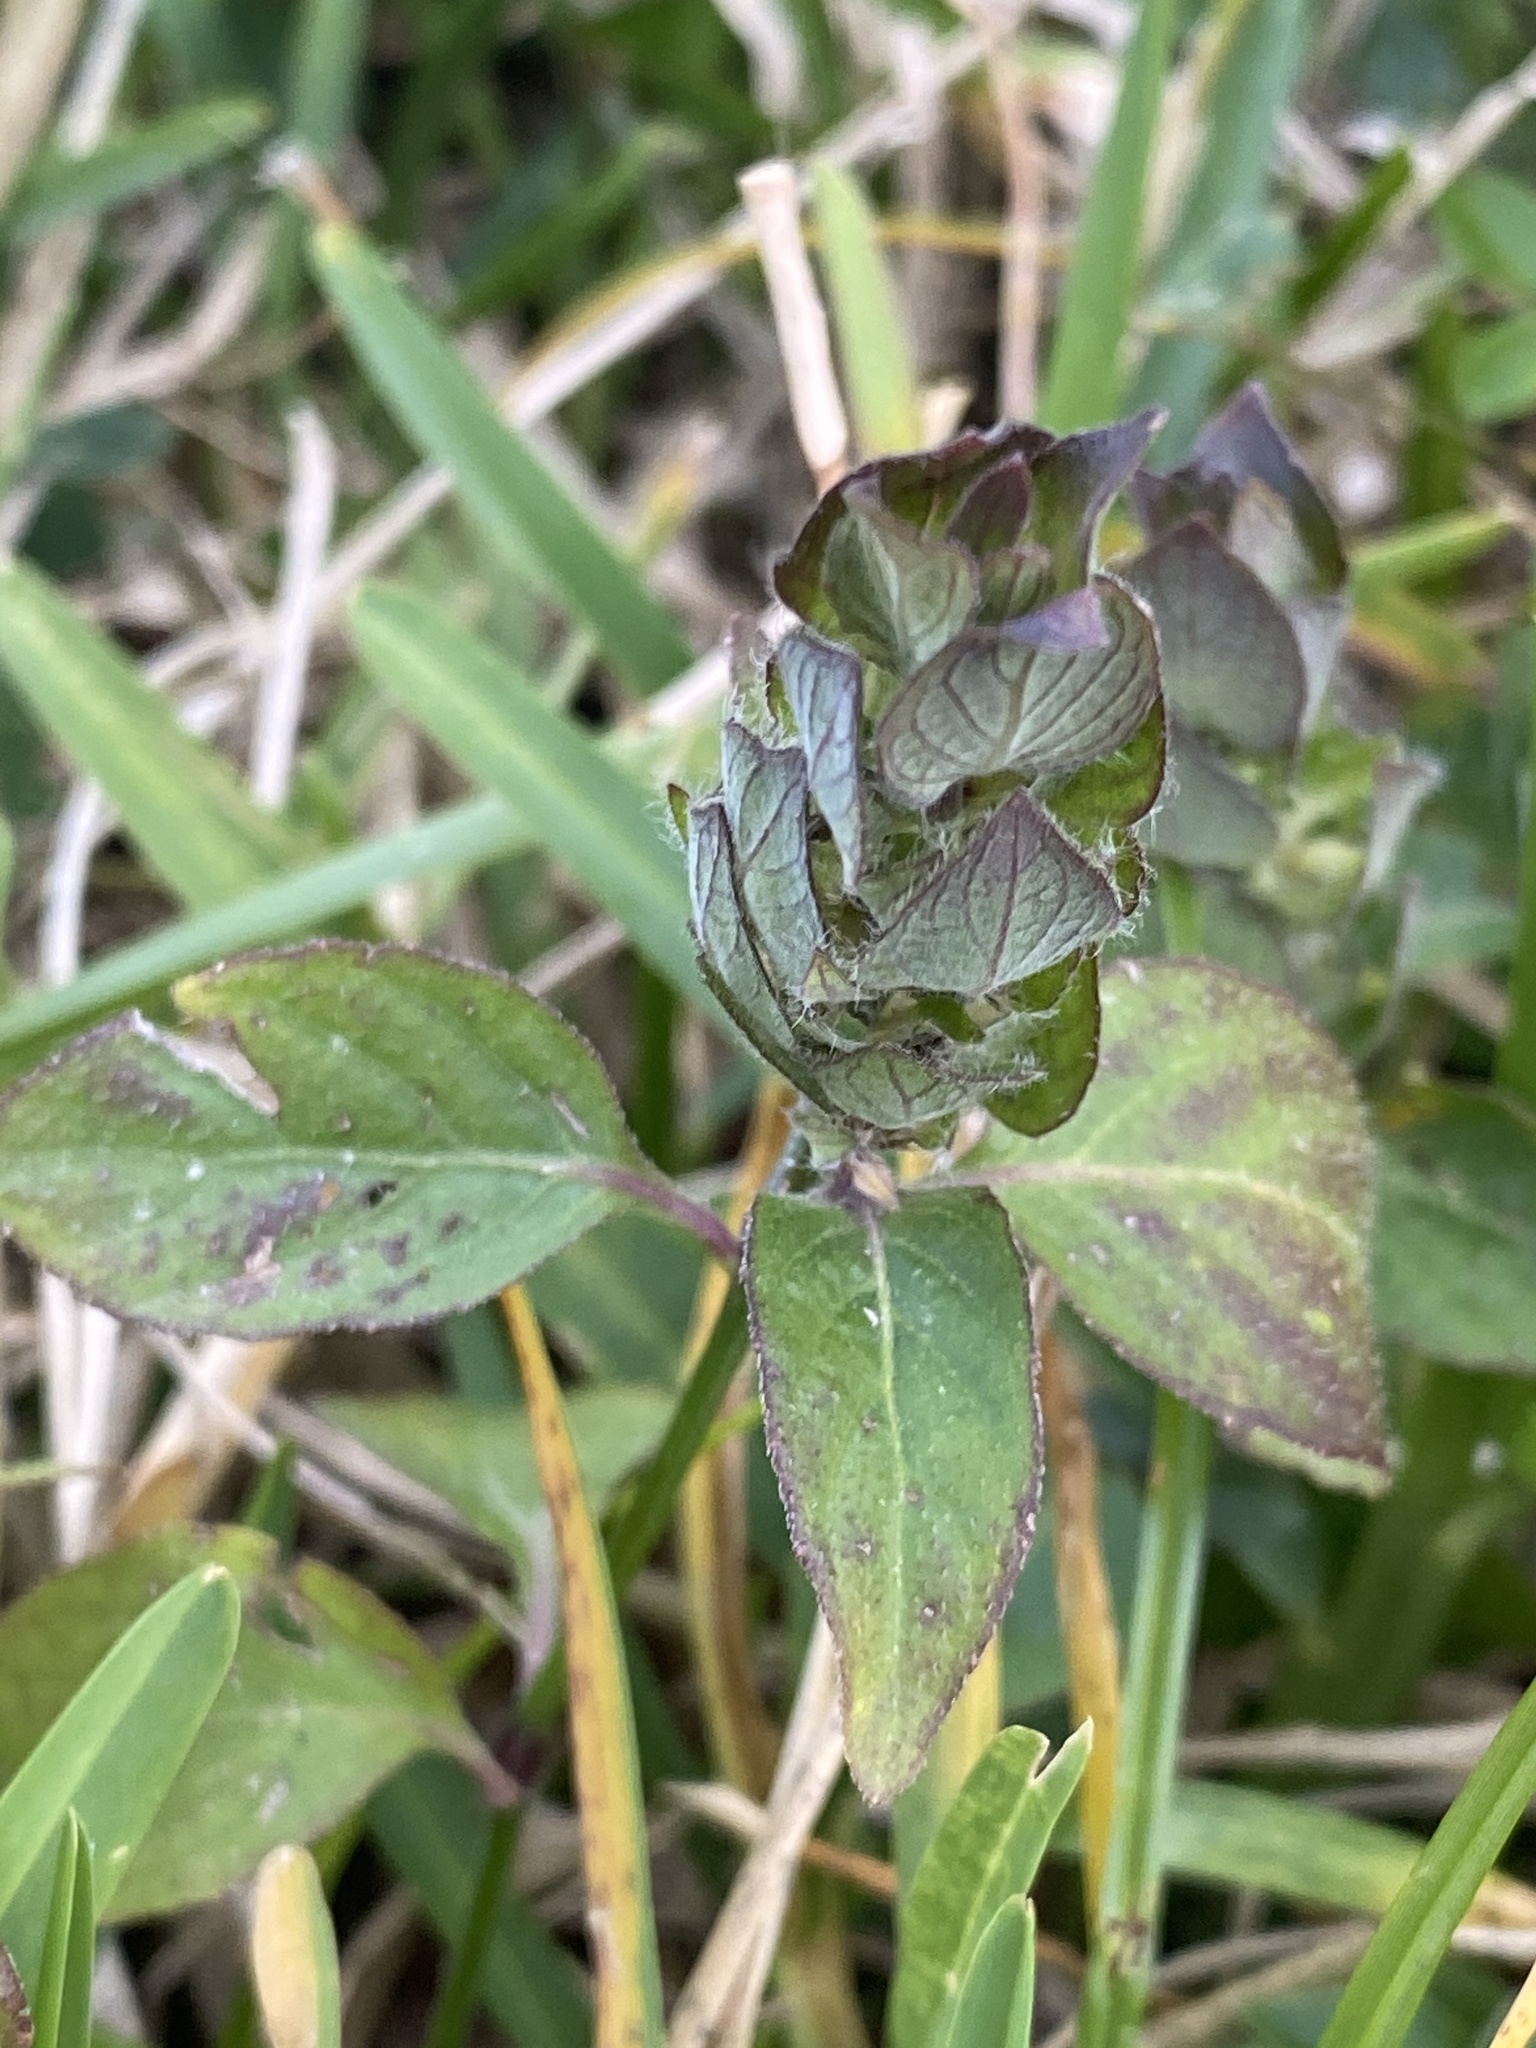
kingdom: Plantae
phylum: Tracheophyta
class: Magnoliopsida
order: Lamiales
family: Acanthaceae
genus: Ruellia
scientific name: Ruellia blechum
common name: Browne's blechum
